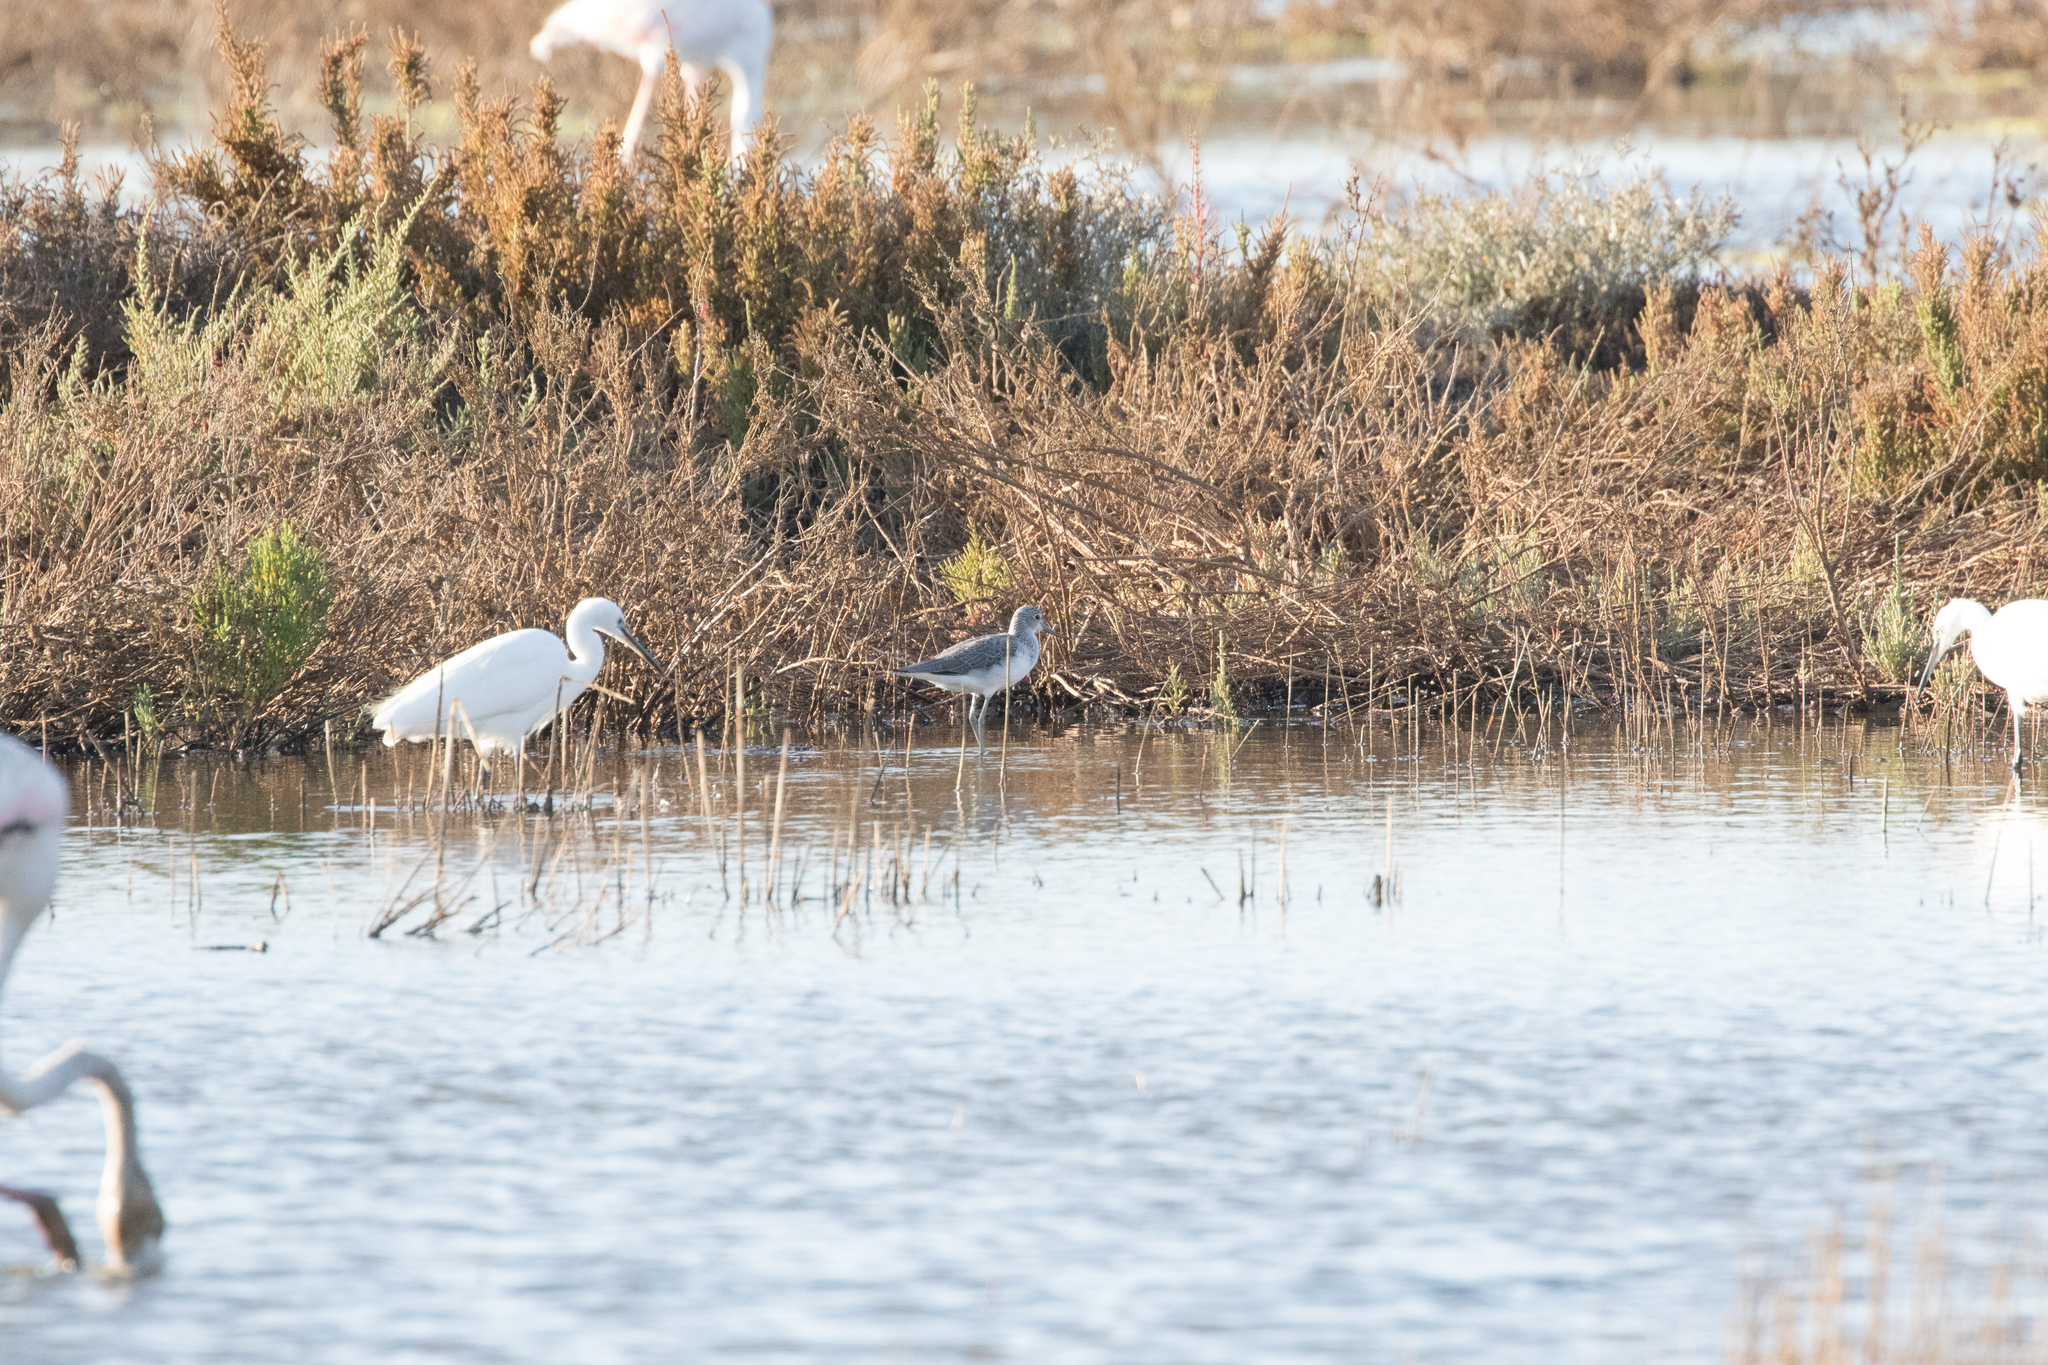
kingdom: Animalia
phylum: Chordata
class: Aves
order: Charadriiformes
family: Scolopacidae
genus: Tringa
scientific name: Tringa nebularia
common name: Common greenshank
